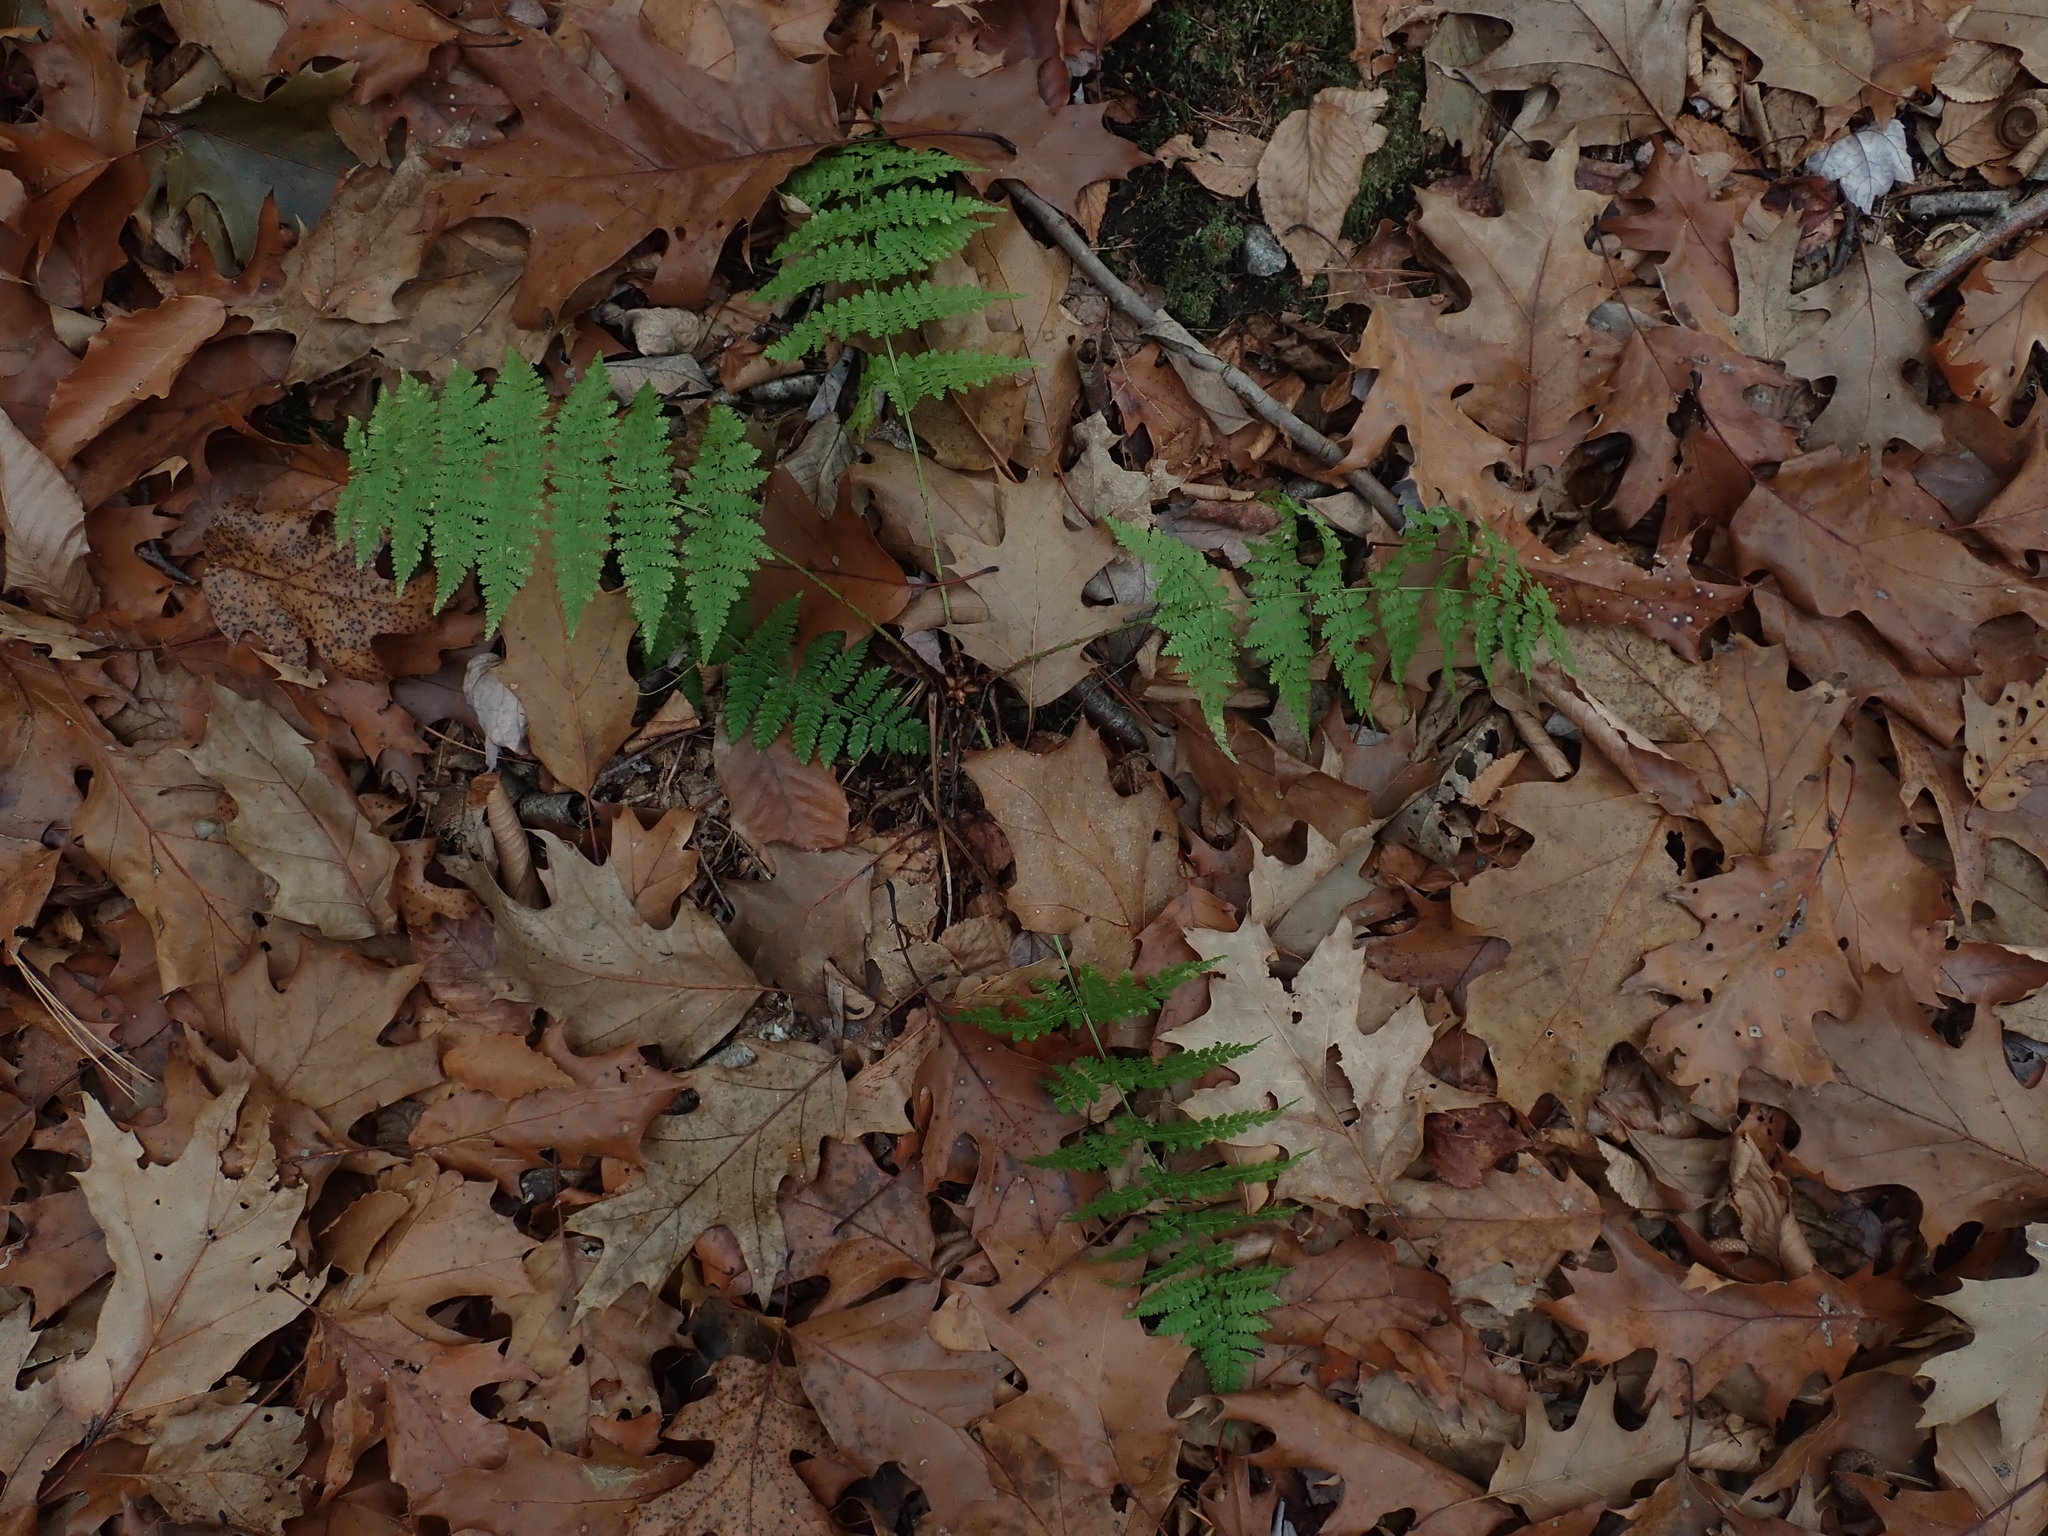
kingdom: Plantae
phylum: Tracheophyta
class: Polypodiopsida
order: Polypodiales
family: Dryopteridaceae
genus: Dryopteris
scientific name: Dryopteris intermedia
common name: Evergreen wood fern
